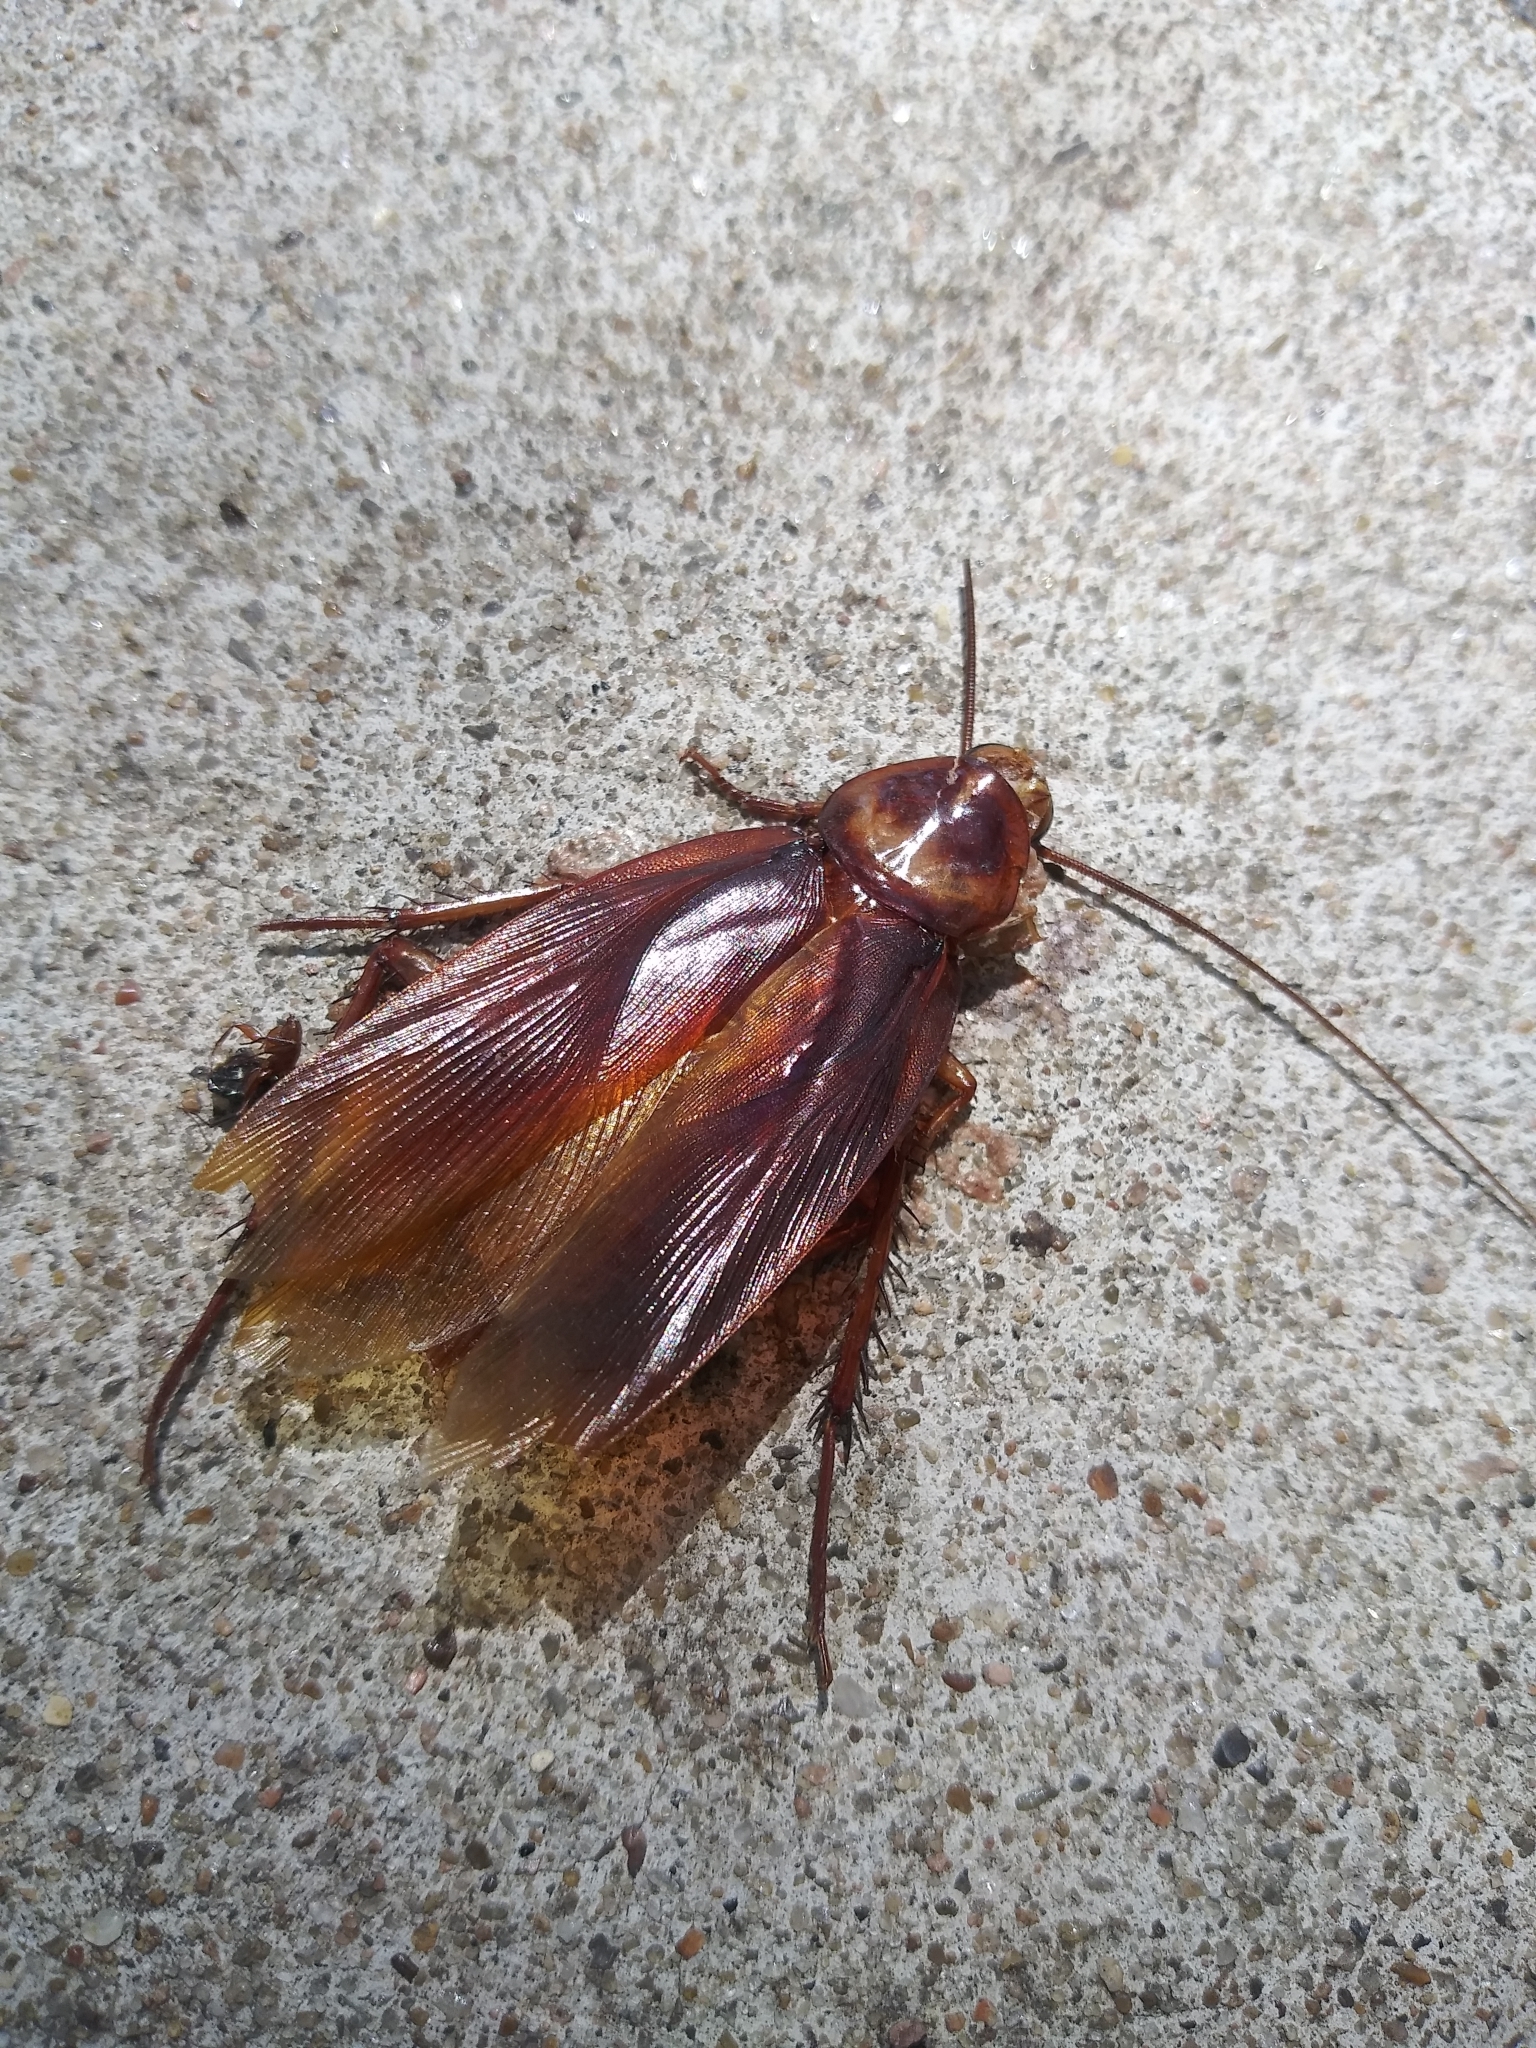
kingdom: Animalia
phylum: Arthropoda
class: Insecta
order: Blattodea
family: Blattidae
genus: Periplaneta
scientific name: Periplaneta americana
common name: American cockroach
